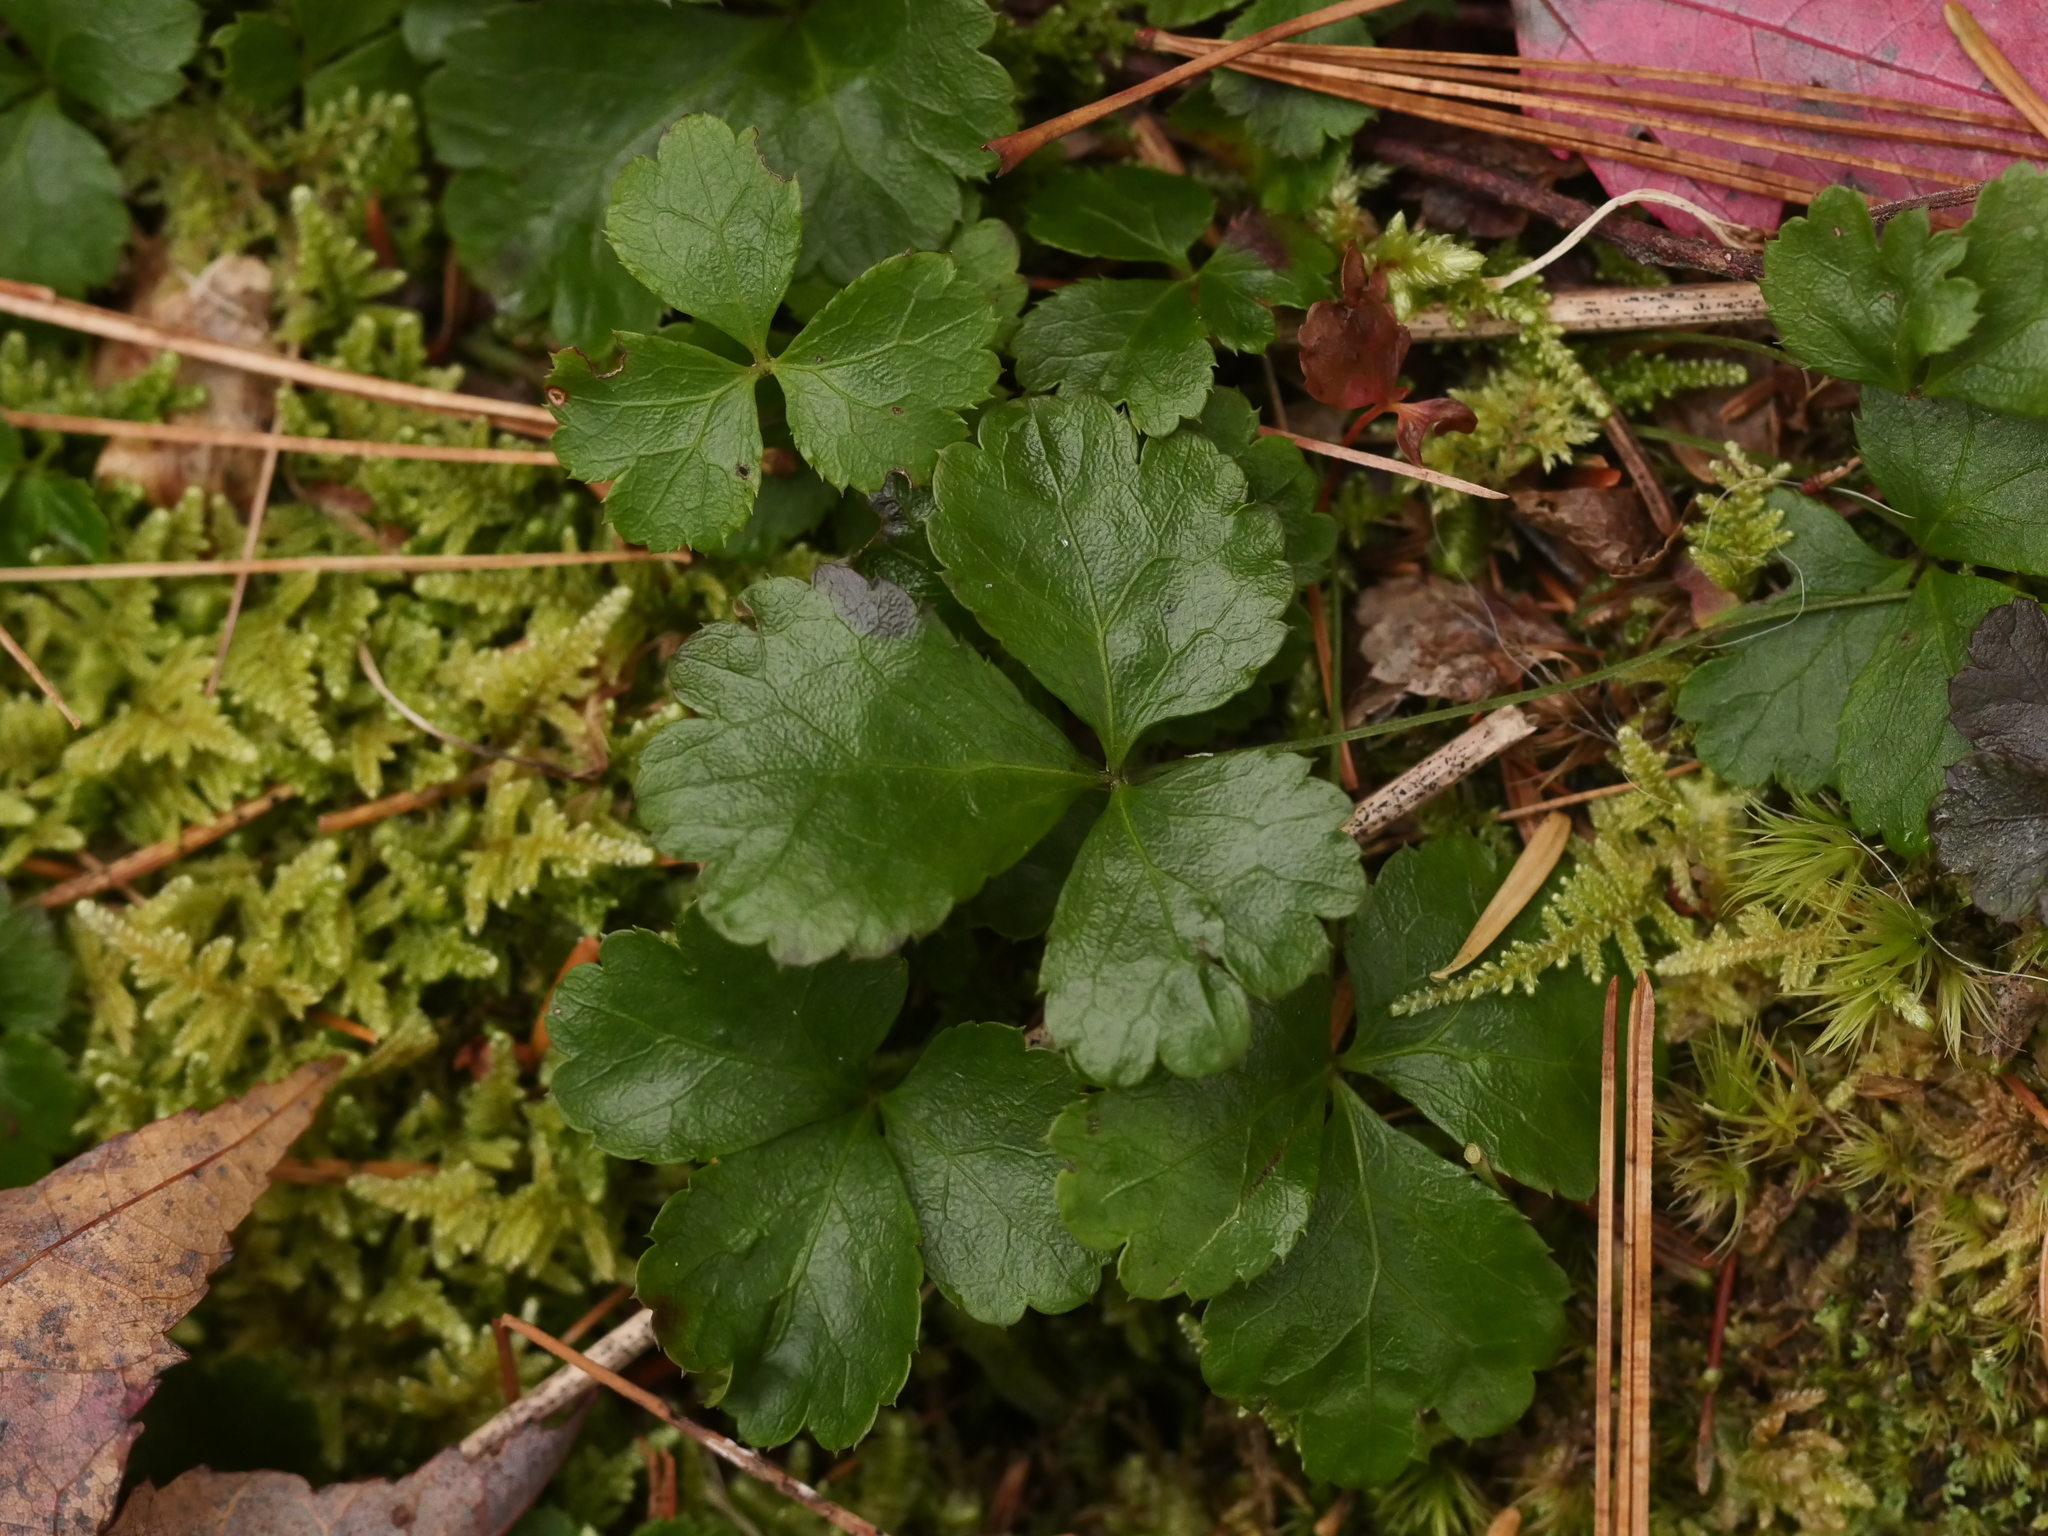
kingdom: Plantae
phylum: Tracheophyta
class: Magnoliopsida
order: Ranunculales
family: Ranunculaceae
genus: Coptis
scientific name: Coptis trifolia
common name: Canker-root
